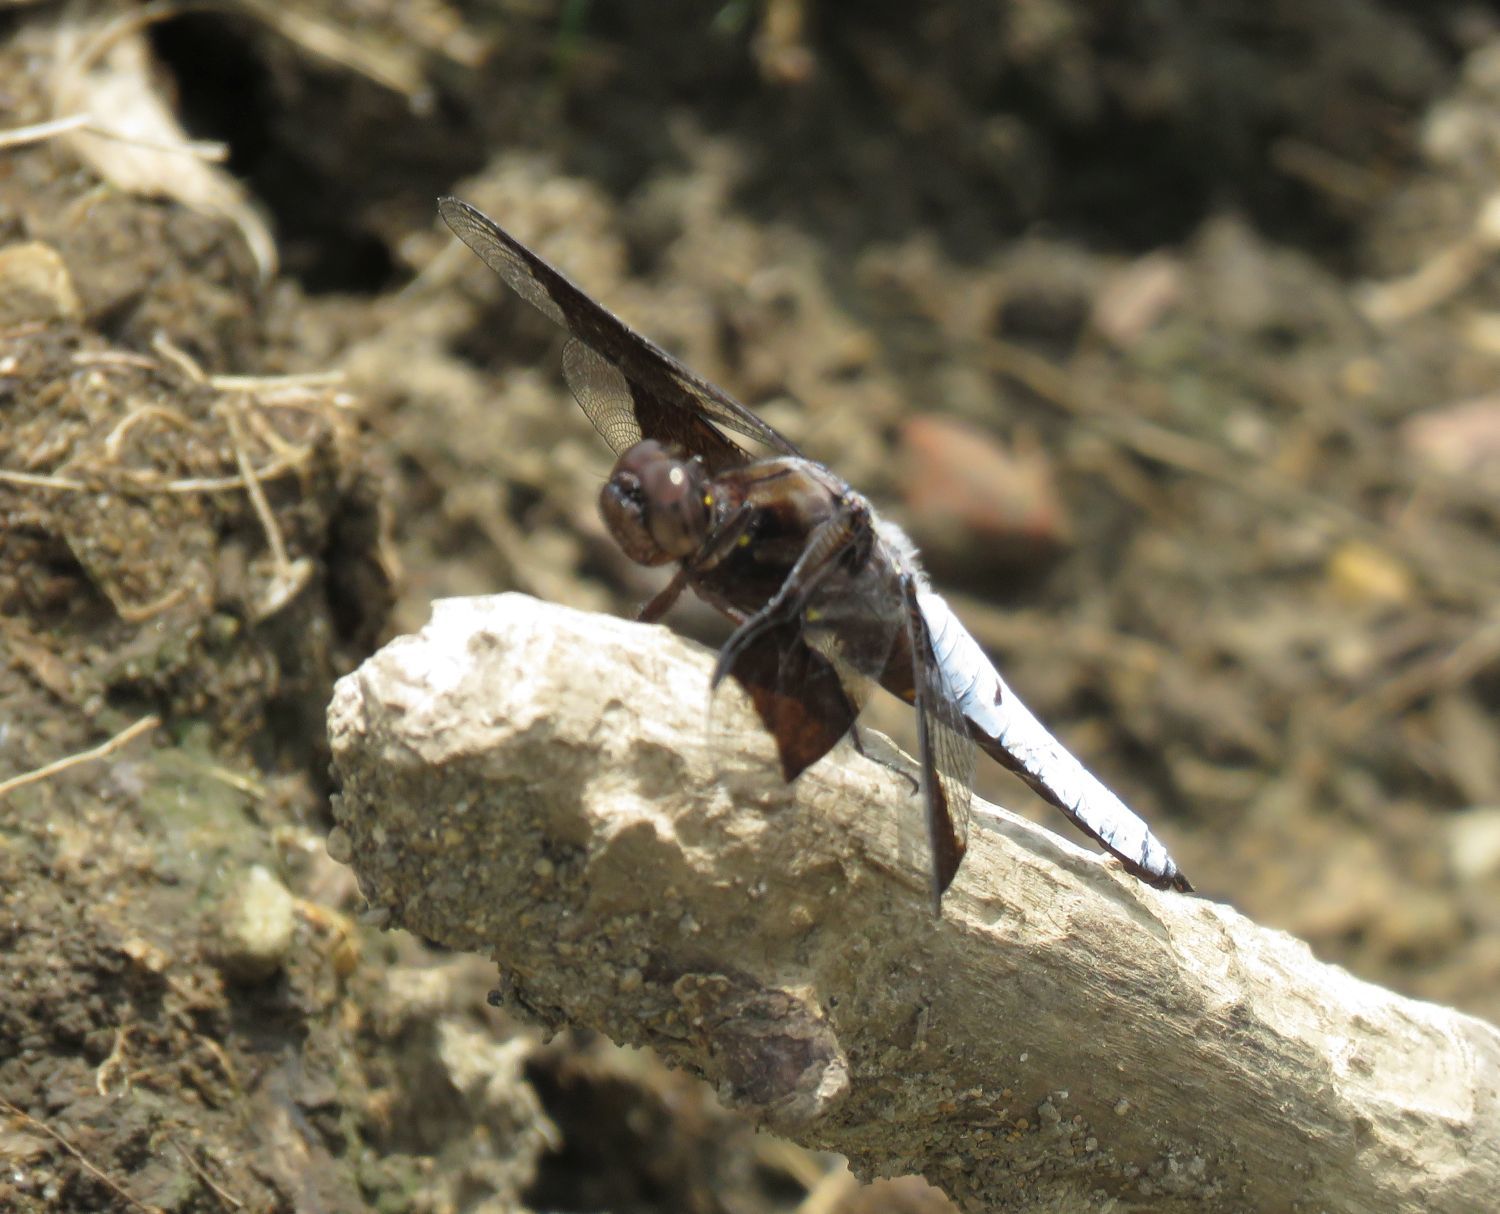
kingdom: Animalia
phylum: Arthropoda
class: Insecta
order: Odonata
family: Libellulidae
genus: Plathemis
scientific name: Plathemis lydia
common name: Common whitetail
